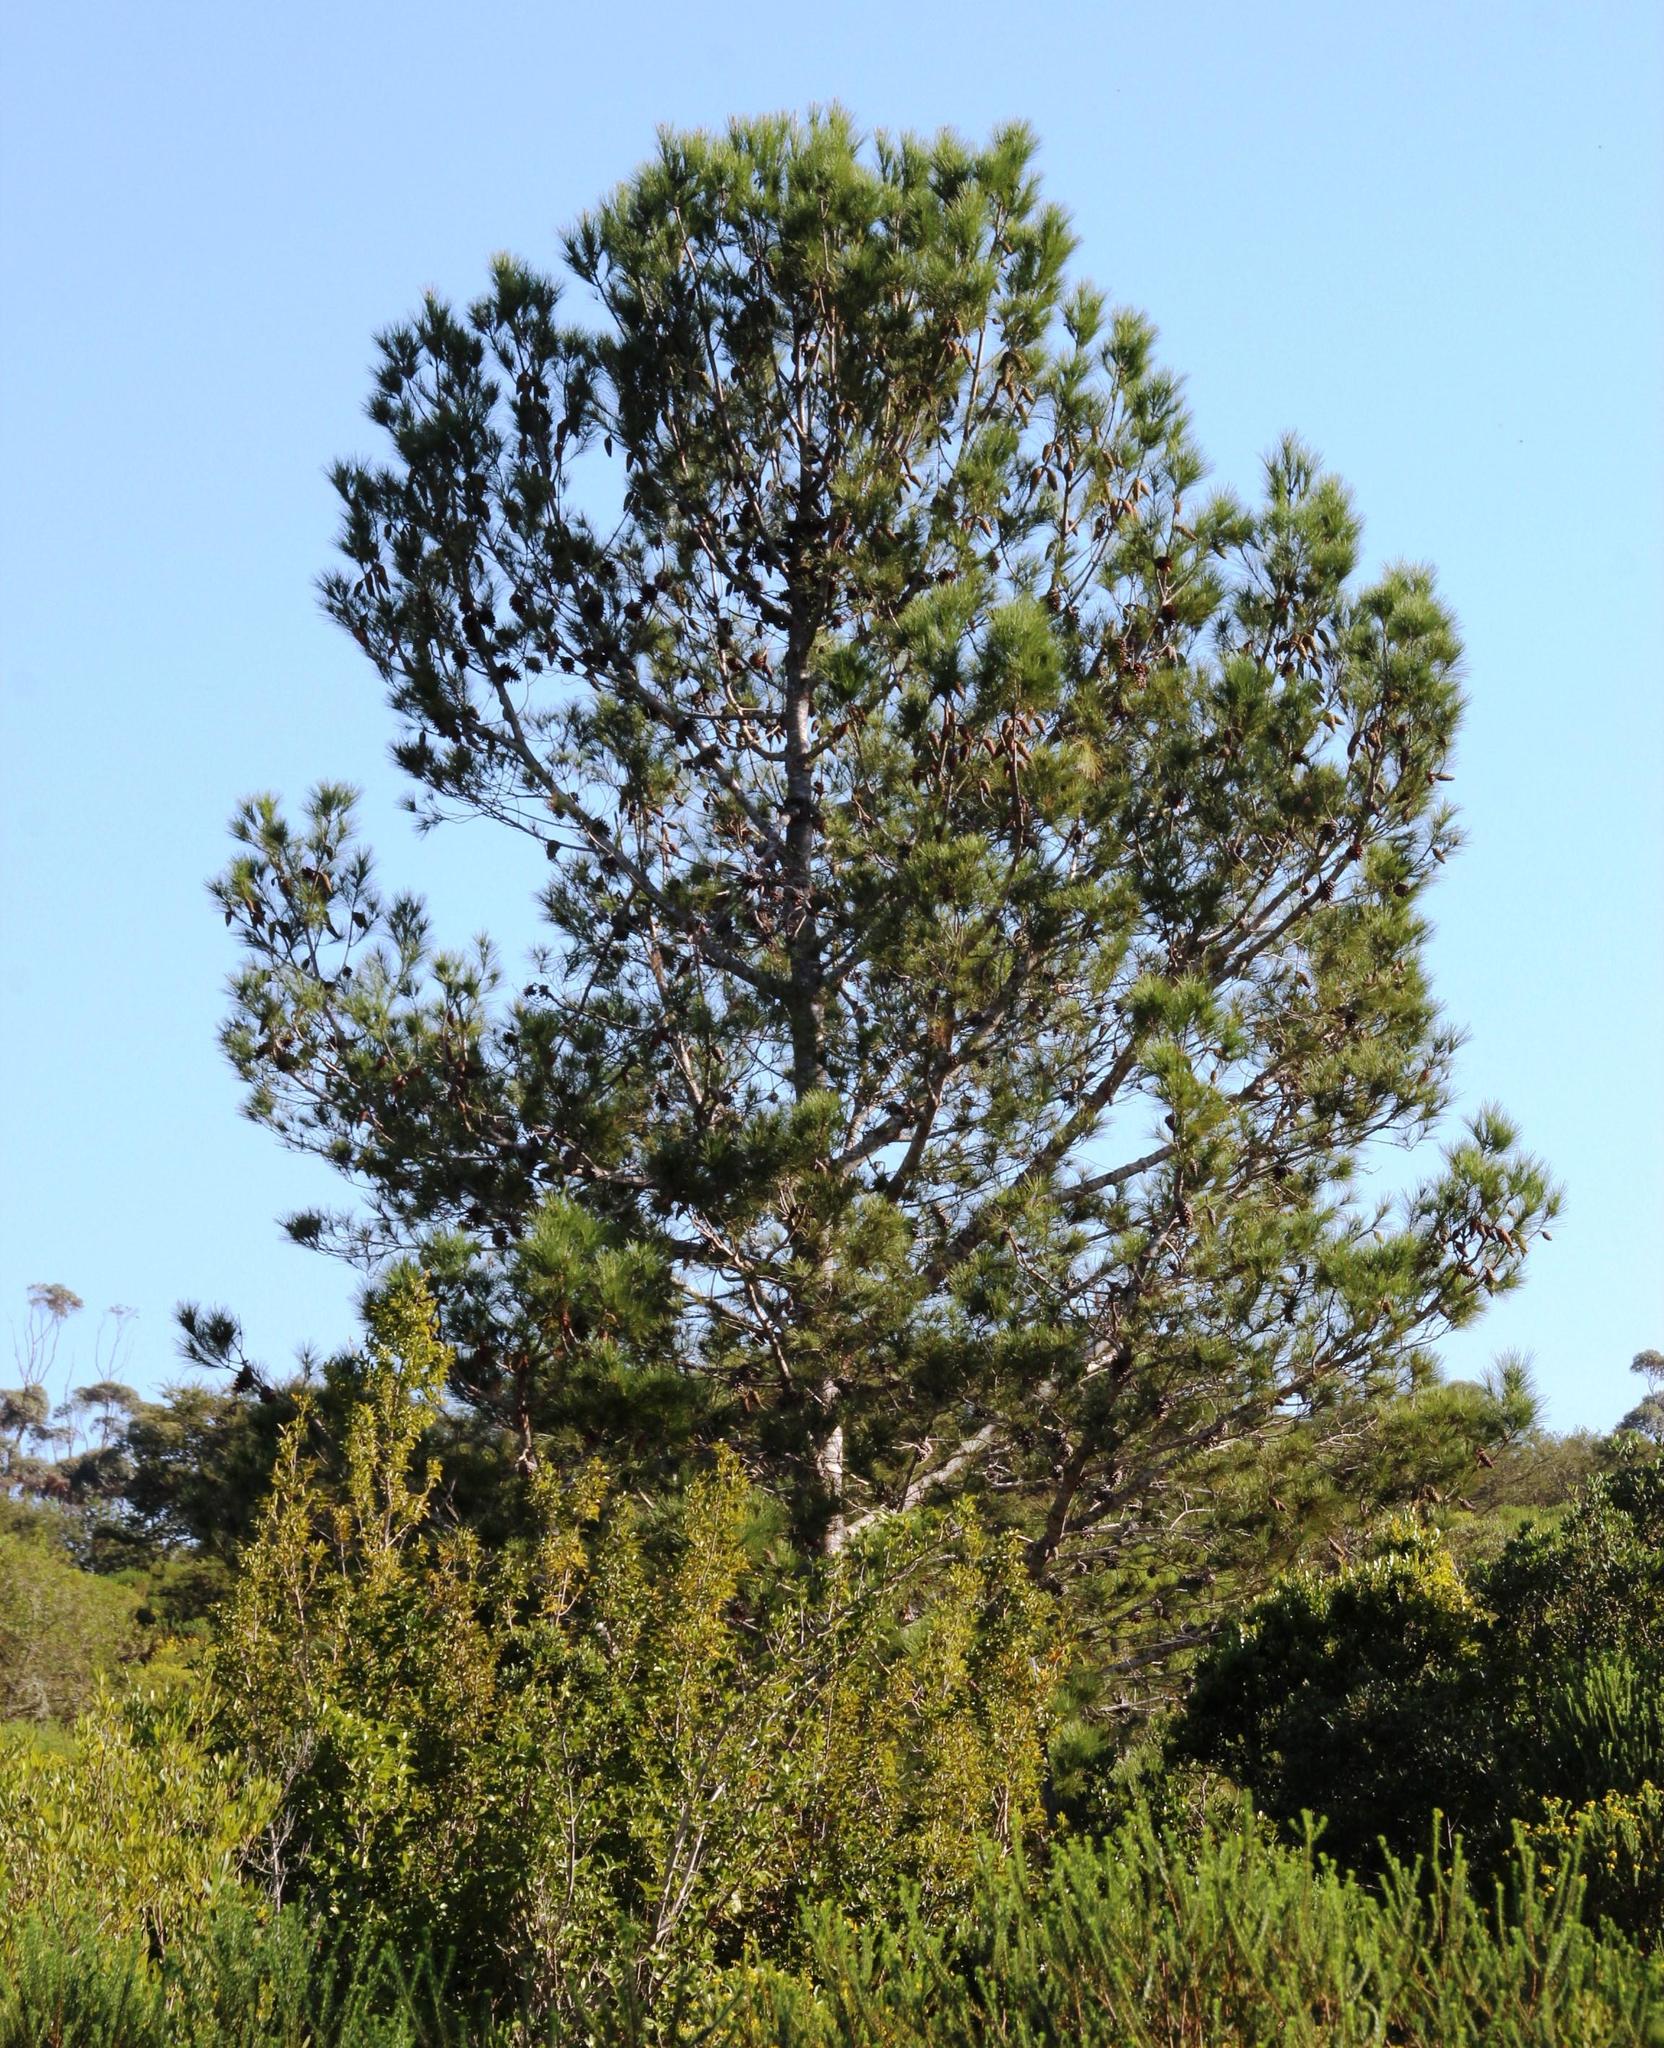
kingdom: Plantae
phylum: Tracheophyta
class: Pinopsida
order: Pinales
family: Pinaceae
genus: Pinus
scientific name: Pinus halepensis
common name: Aleppo pine
